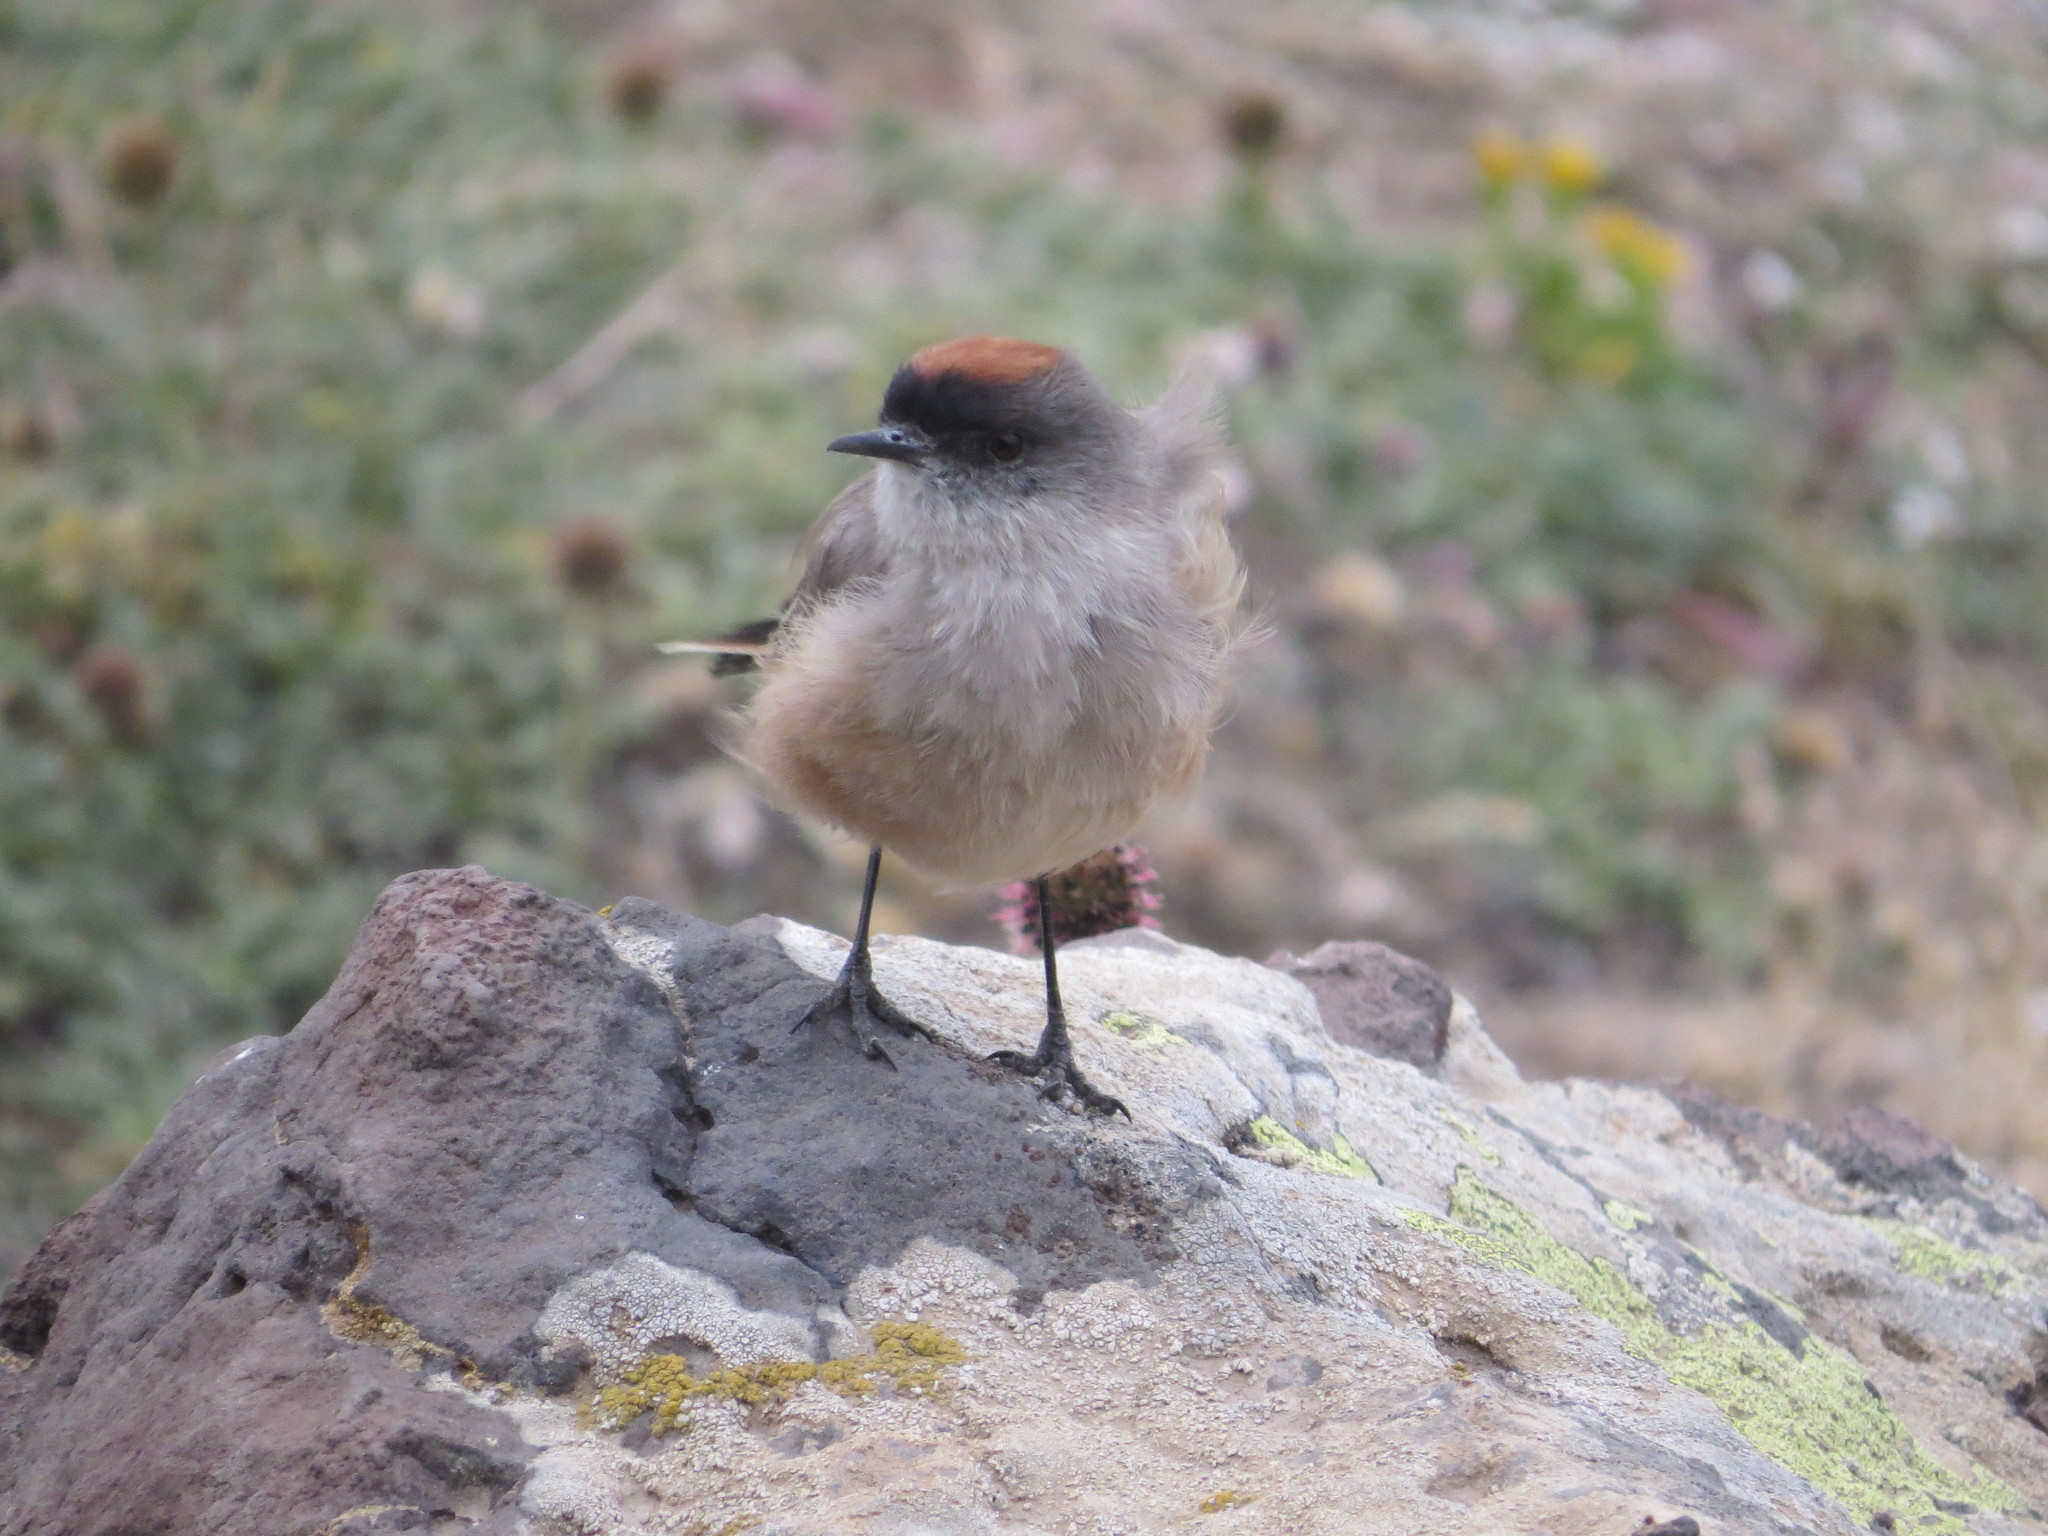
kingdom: Animalia
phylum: Chordata
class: Aves
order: Passeriformes
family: Tyrannidae
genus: Muscisaxicola
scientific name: Muscisaxicola capistratus
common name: Cinnamon-bellied ground tyrant
